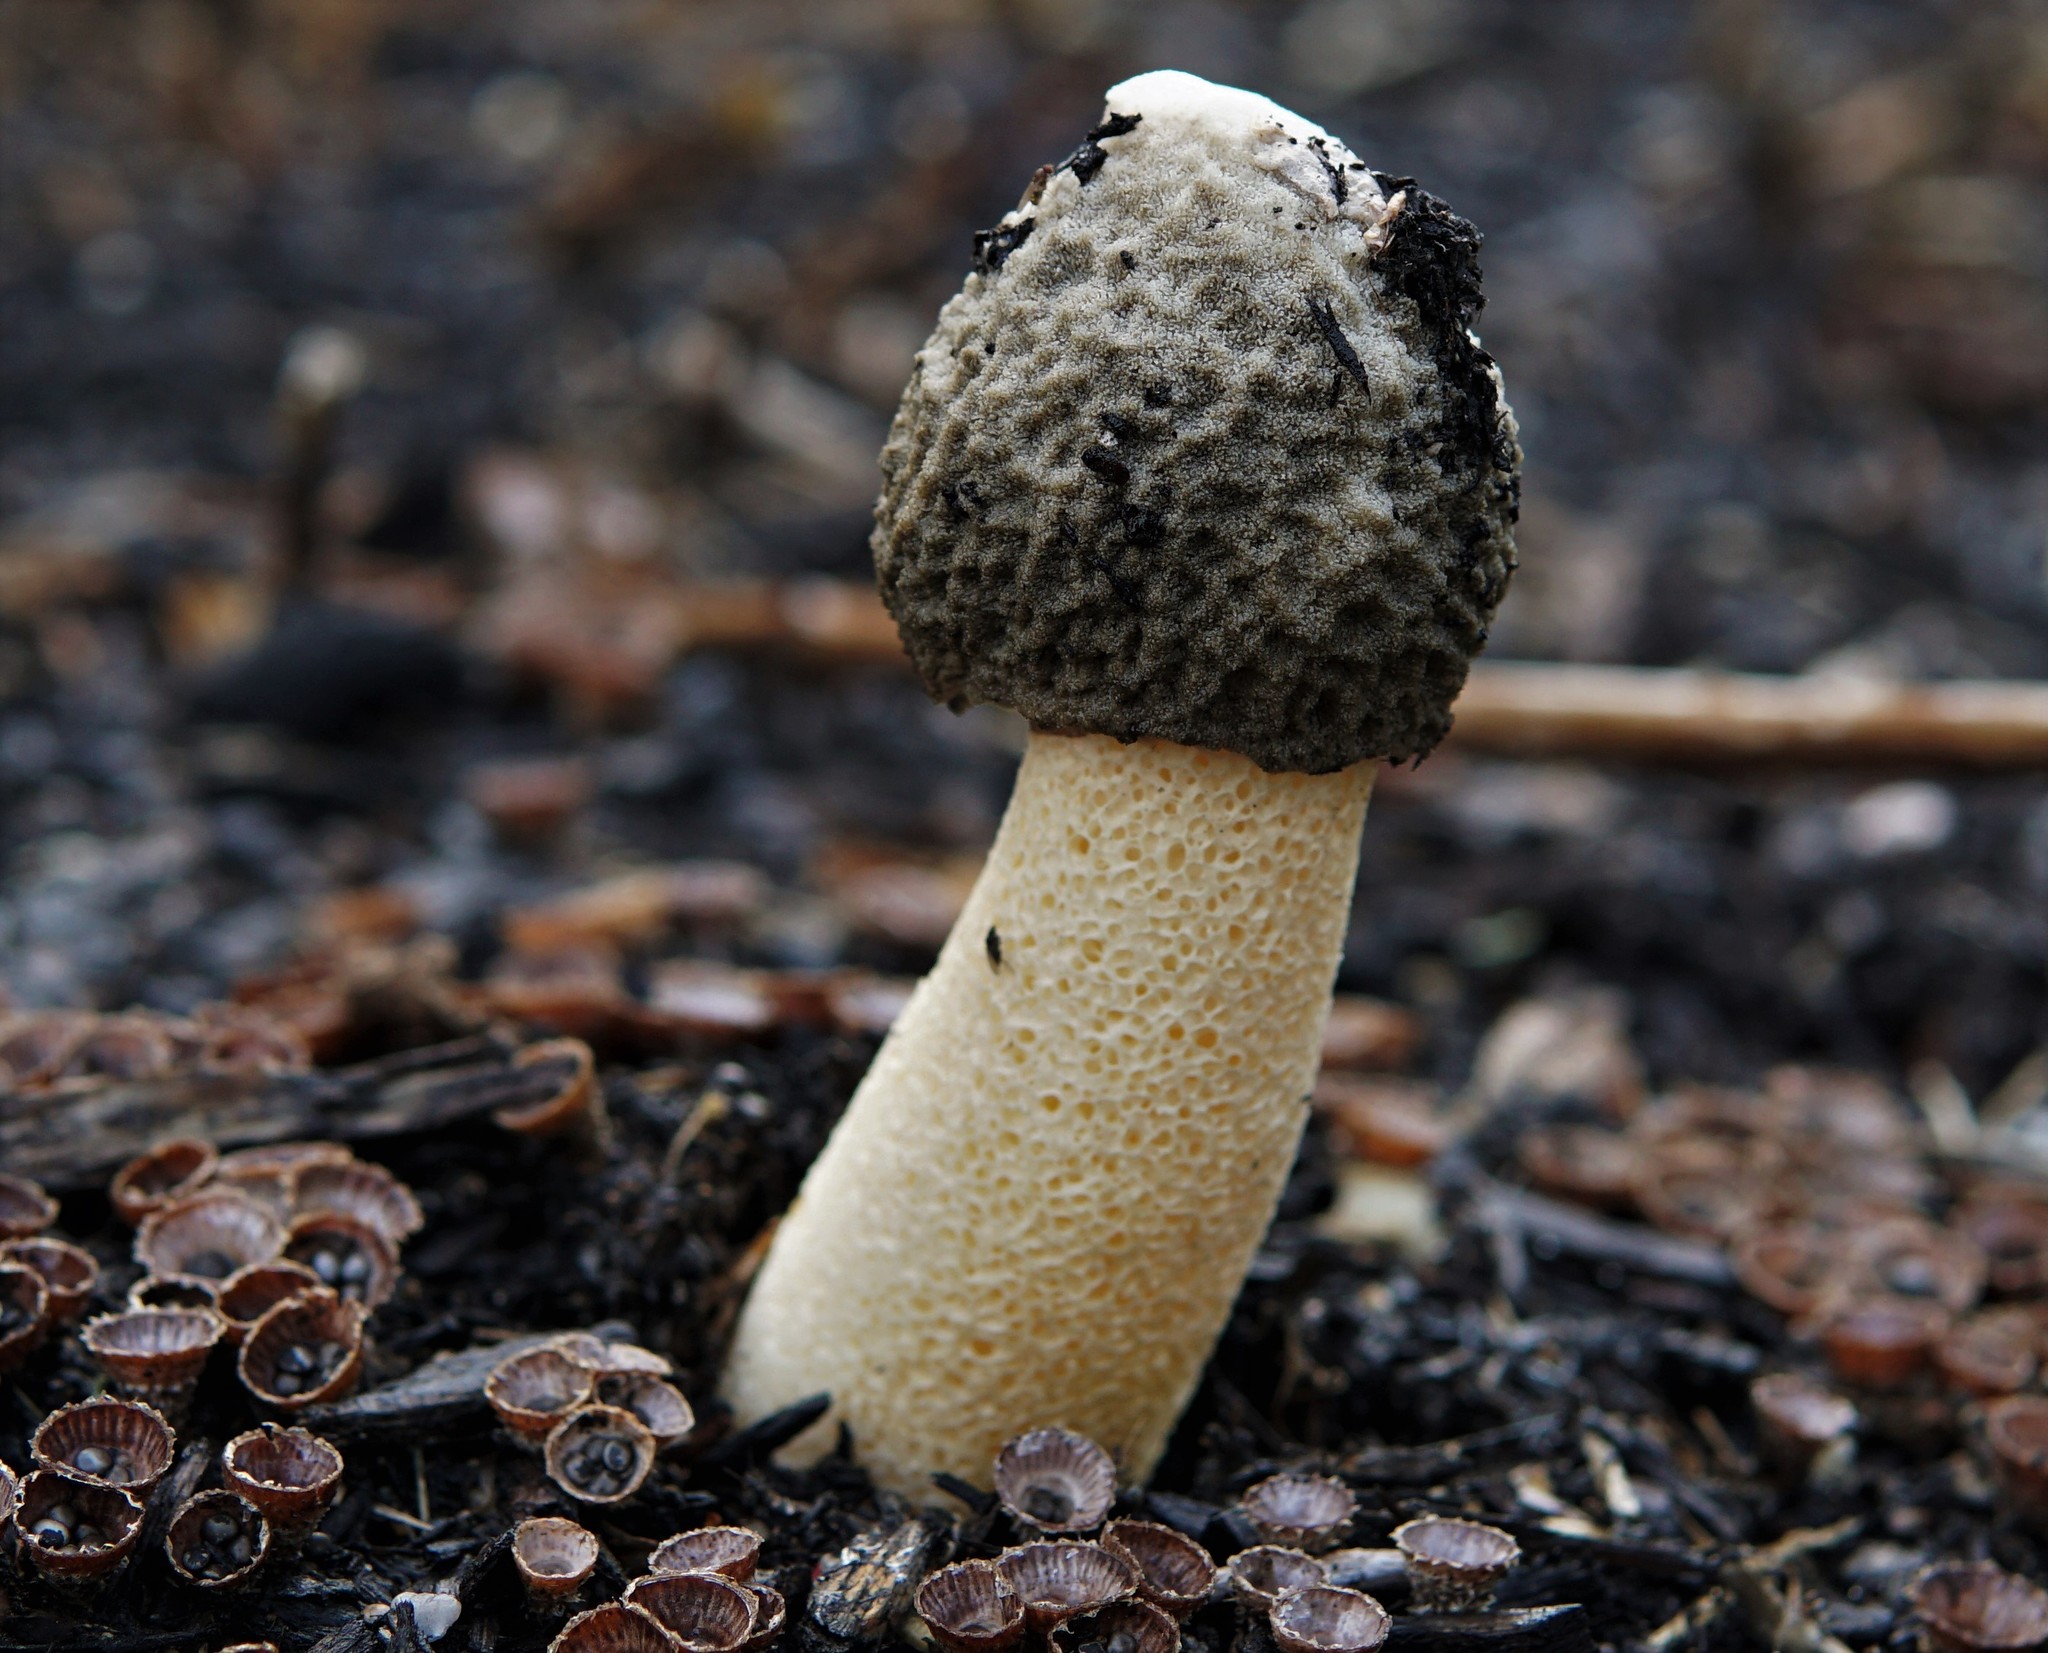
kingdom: Fungi
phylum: Basidiomycota
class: Agaricomycetes
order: Phallales
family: Phallaceae
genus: Phallus
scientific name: Phallus ravenelii
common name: Ravenel's stinkhorn
